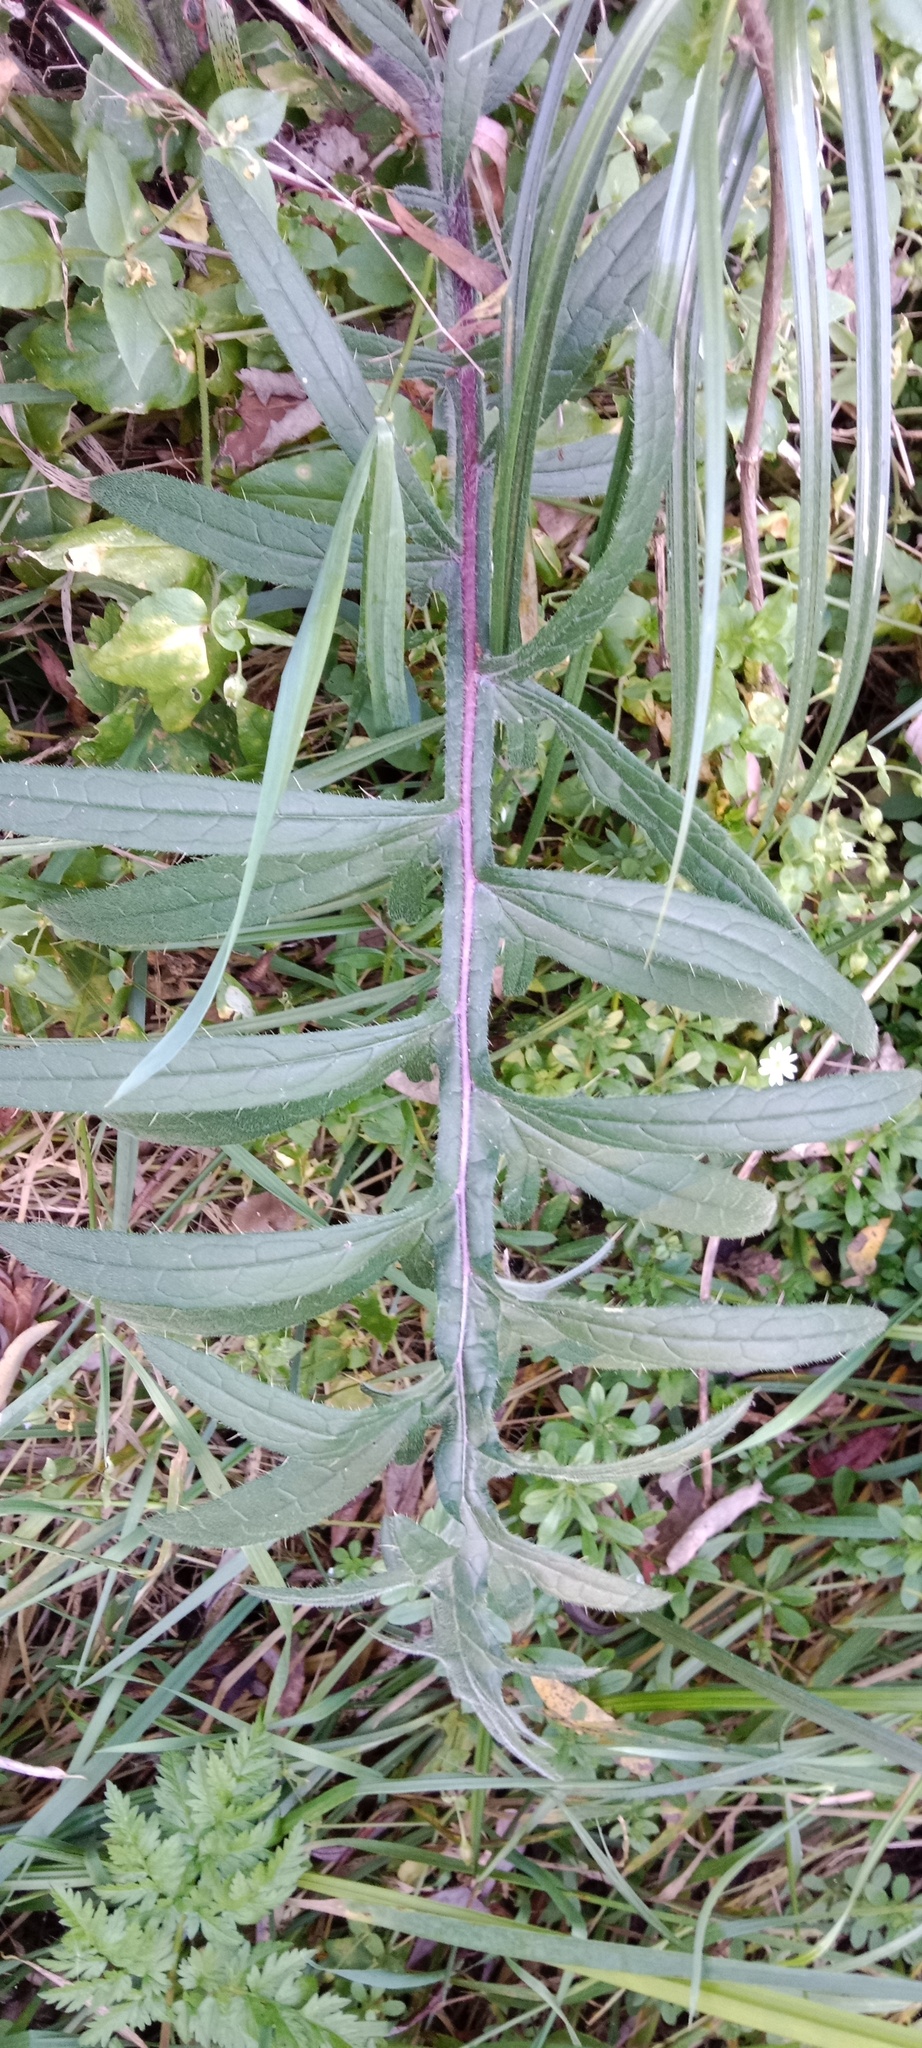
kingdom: Plantae
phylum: Tracheophyta
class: Magnoliopsida
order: Asterales
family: Asteraceae
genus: Lophiolepis
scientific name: Lophiolepis decussata
